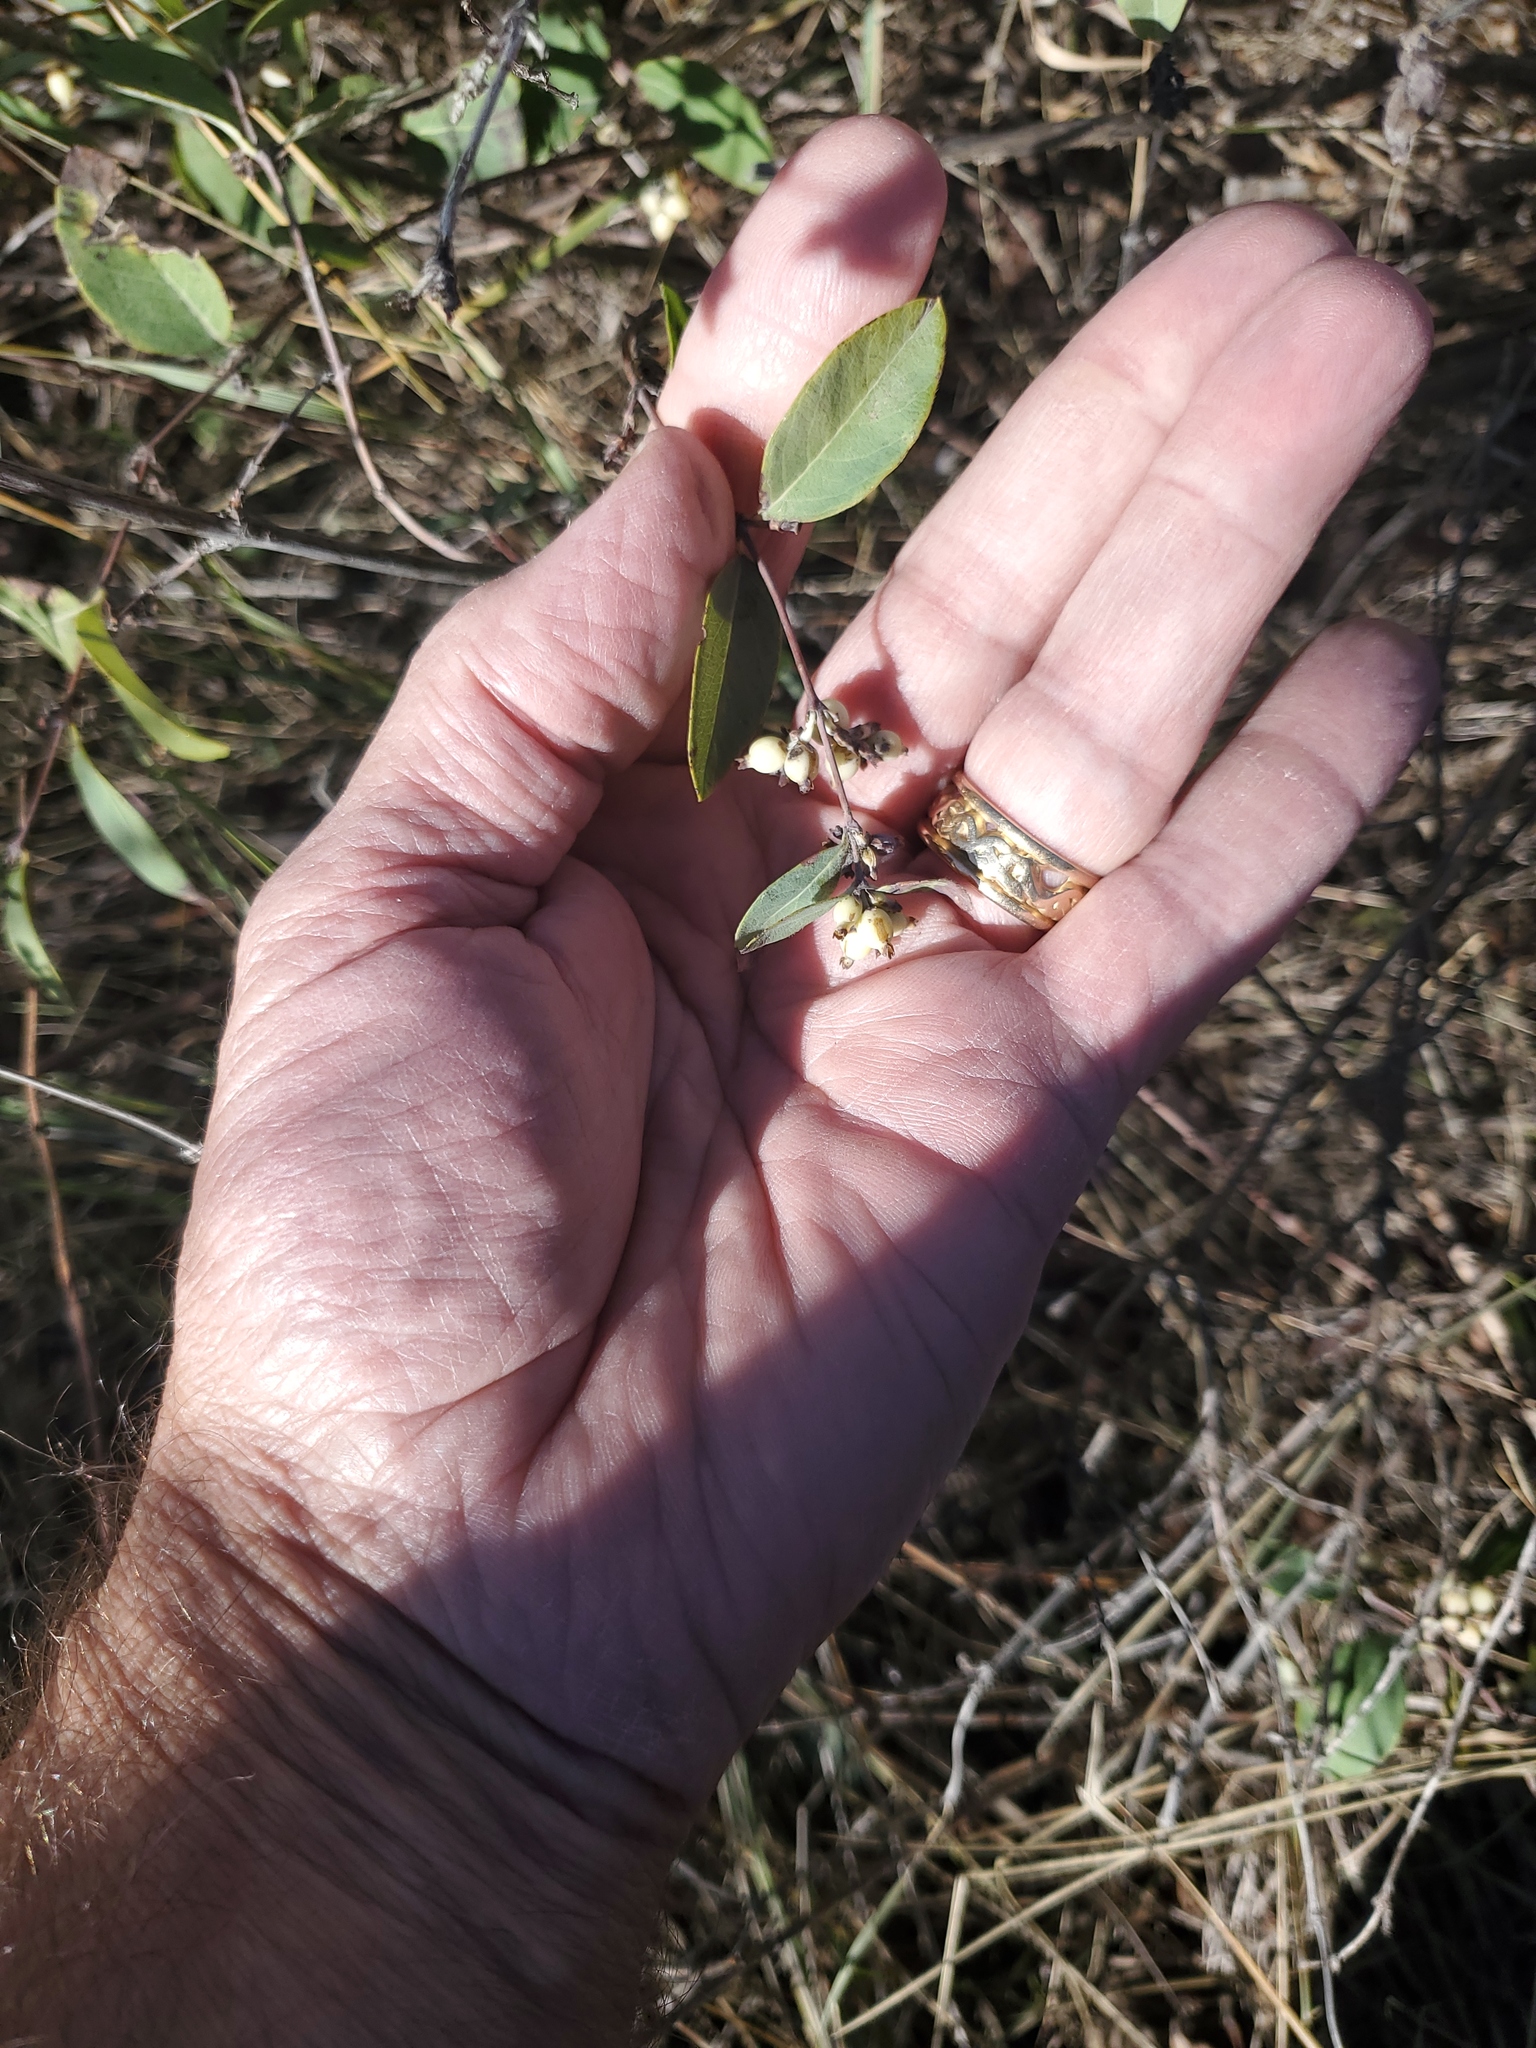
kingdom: Plantae
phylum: Tracheophyta
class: Magnoliopsida
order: Dipsacales
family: Caprifoliaceae
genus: Symphoricarpos
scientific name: Symphoricarpos occidentalis
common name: Wolfberry
